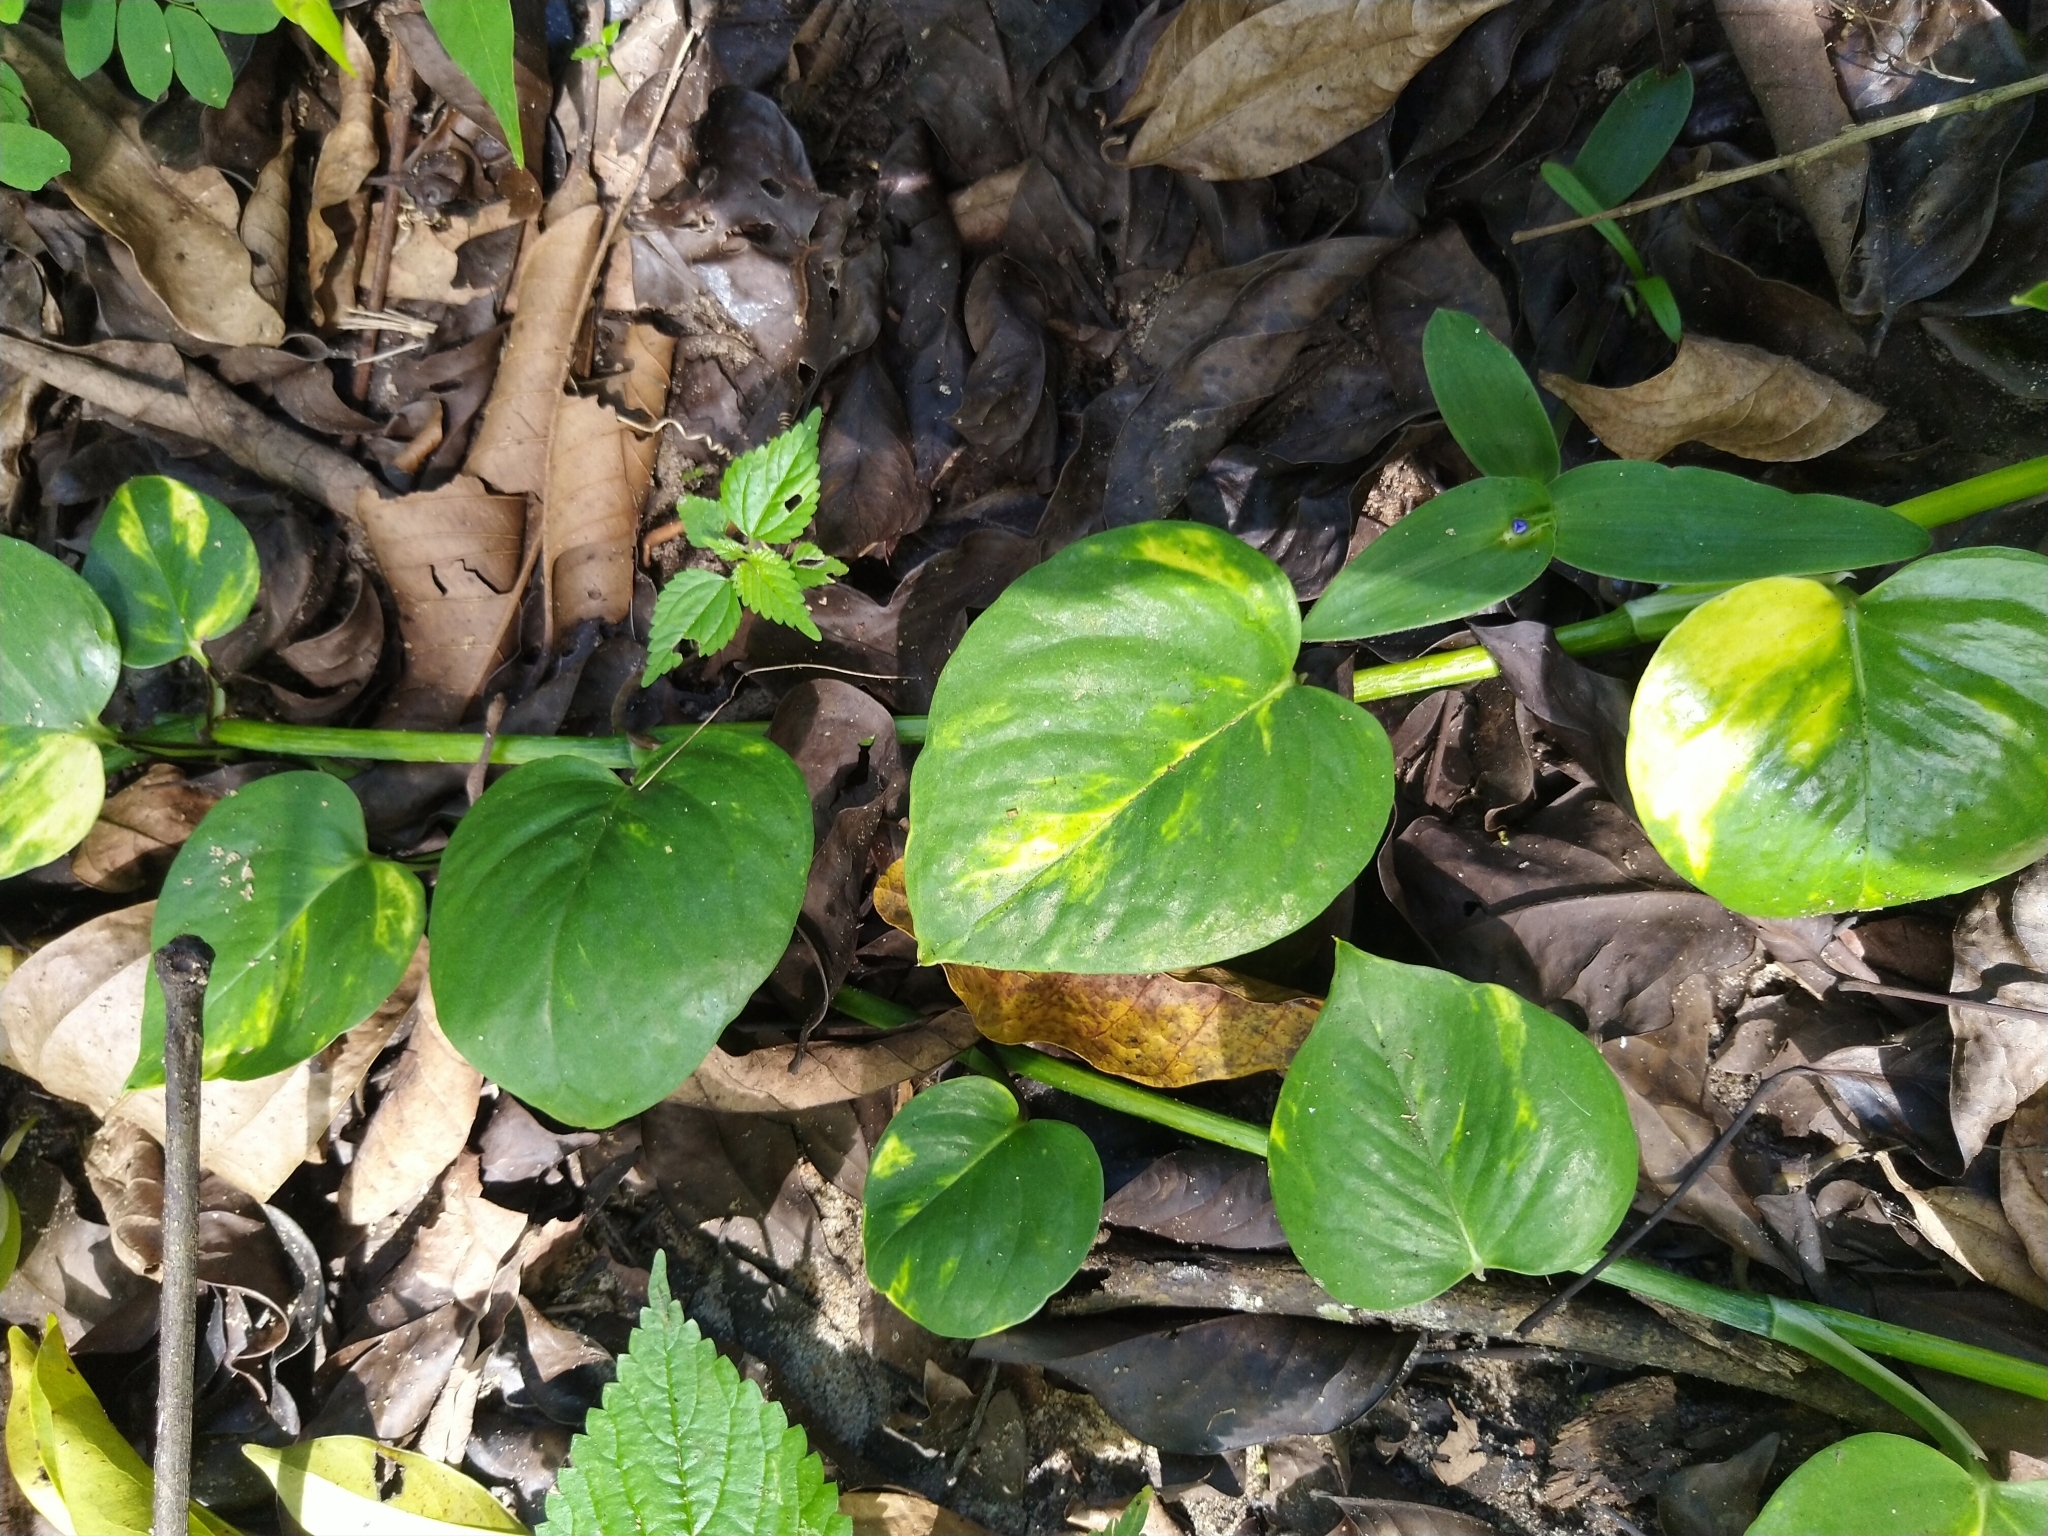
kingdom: Plantae
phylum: Tracheophyta
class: Liliopsida
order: Alismatales
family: Araceae
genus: Epipremnum
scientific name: Epipremnum aureum
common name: Golden hunter's-robe
